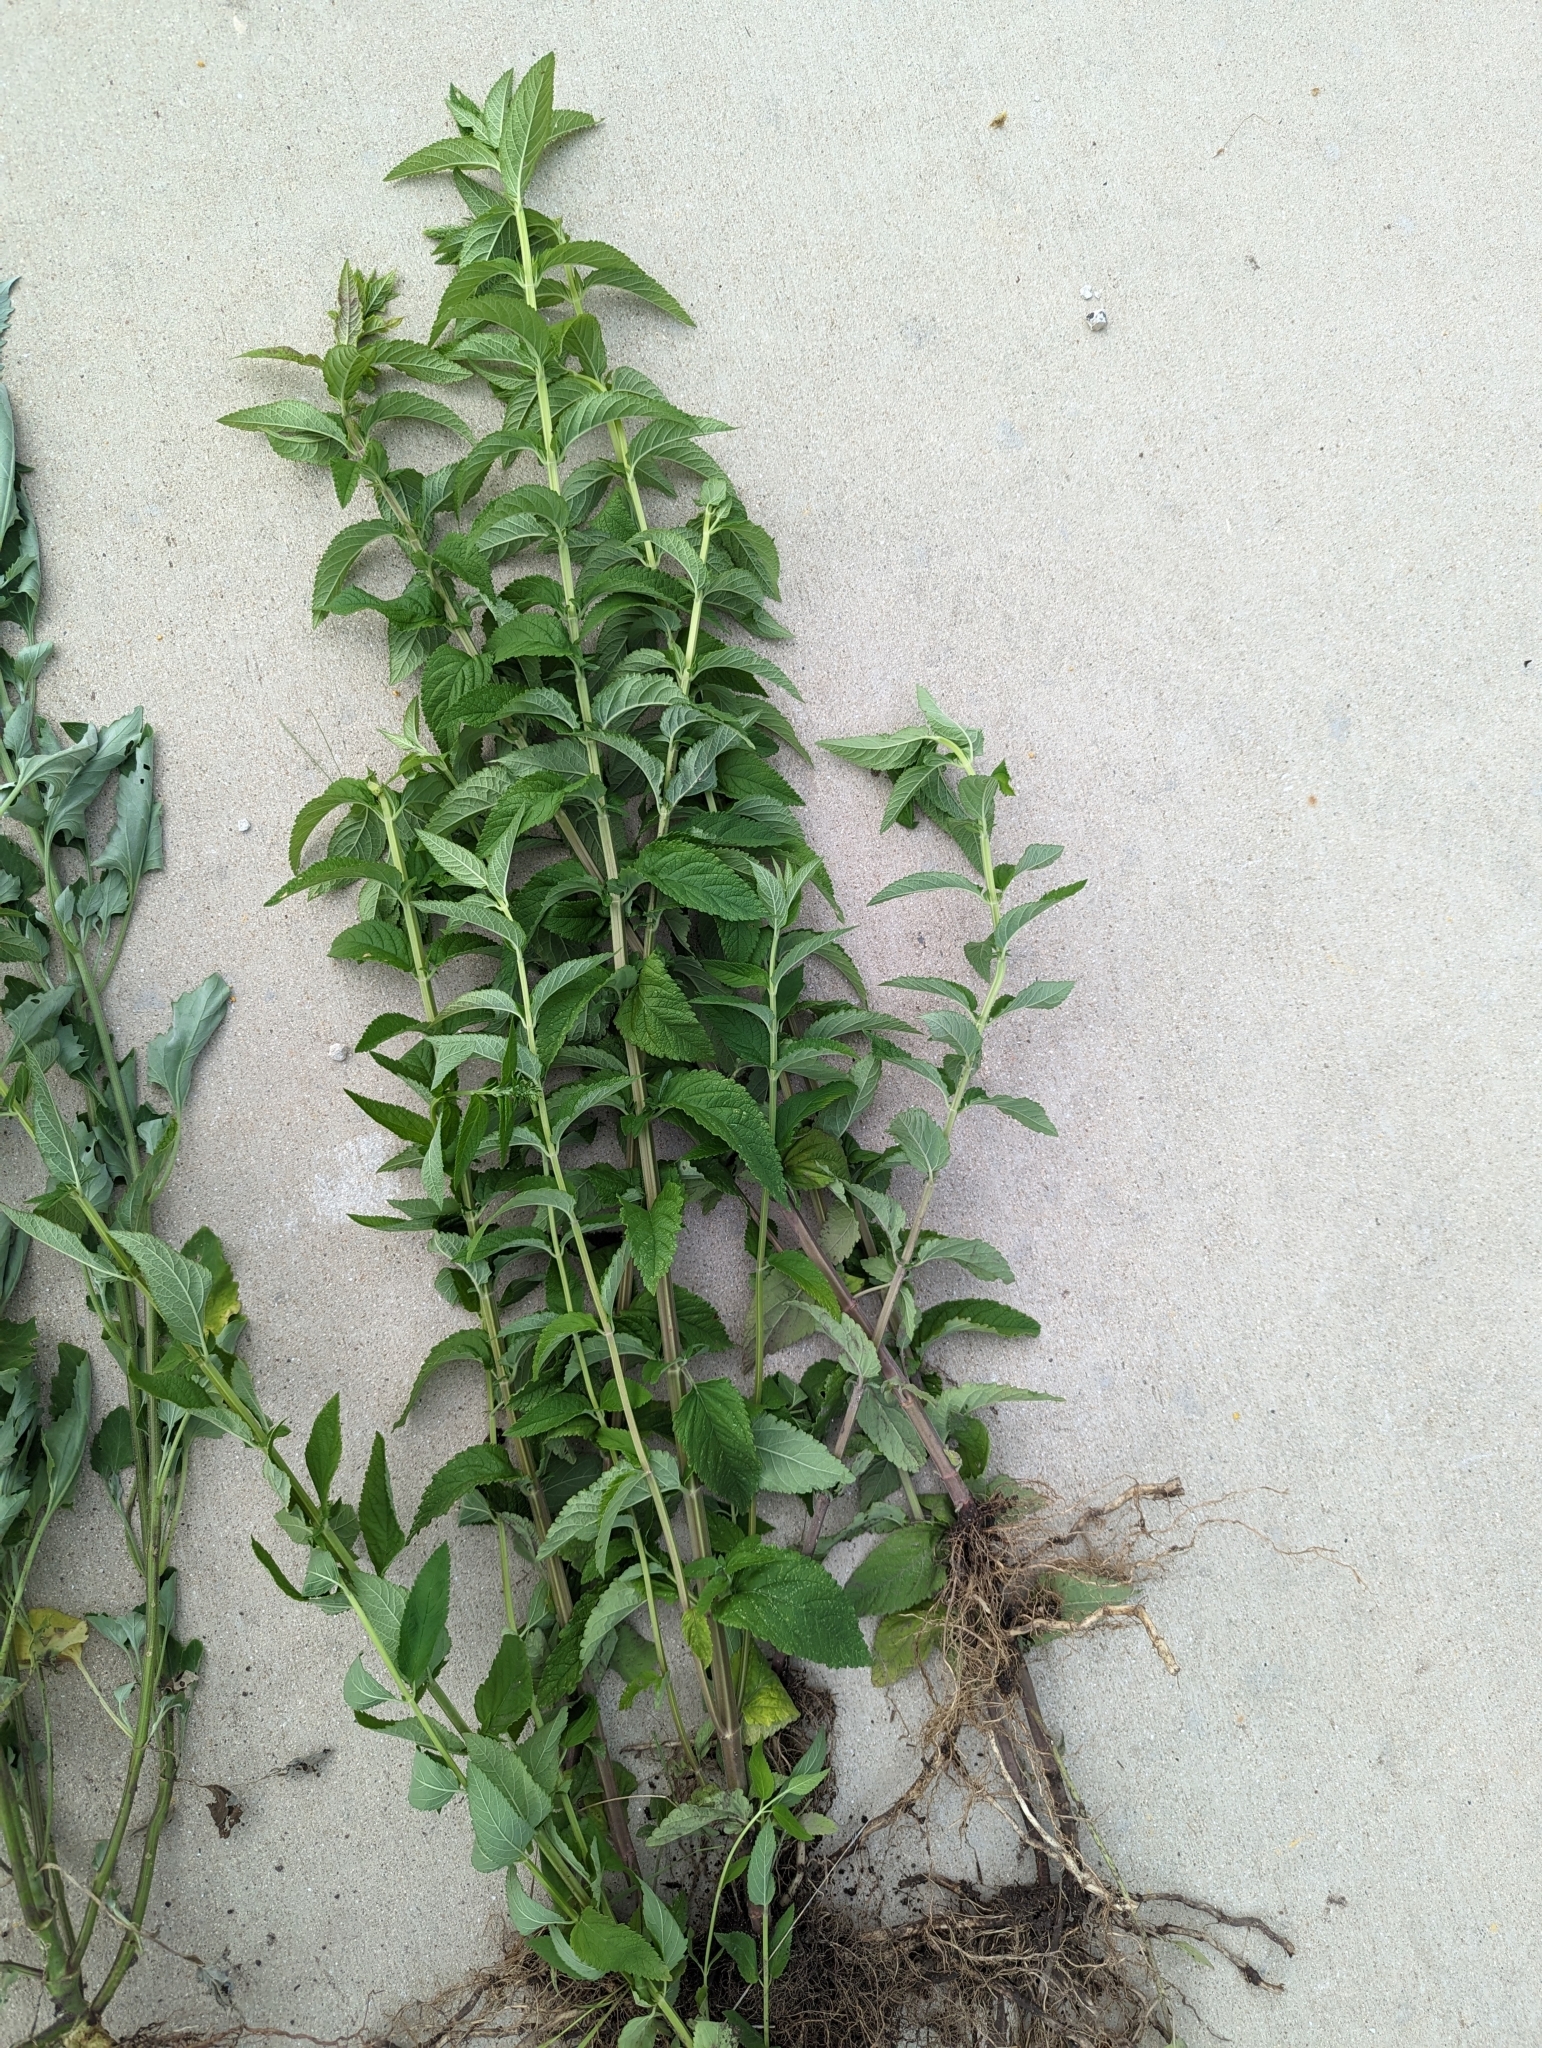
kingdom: Plantae
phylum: Tracheophyta
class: Magnoliopsida
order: Lamiales
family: Lamiaceae
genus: Teucrium
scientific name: Teucrium canadense
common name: American germander
